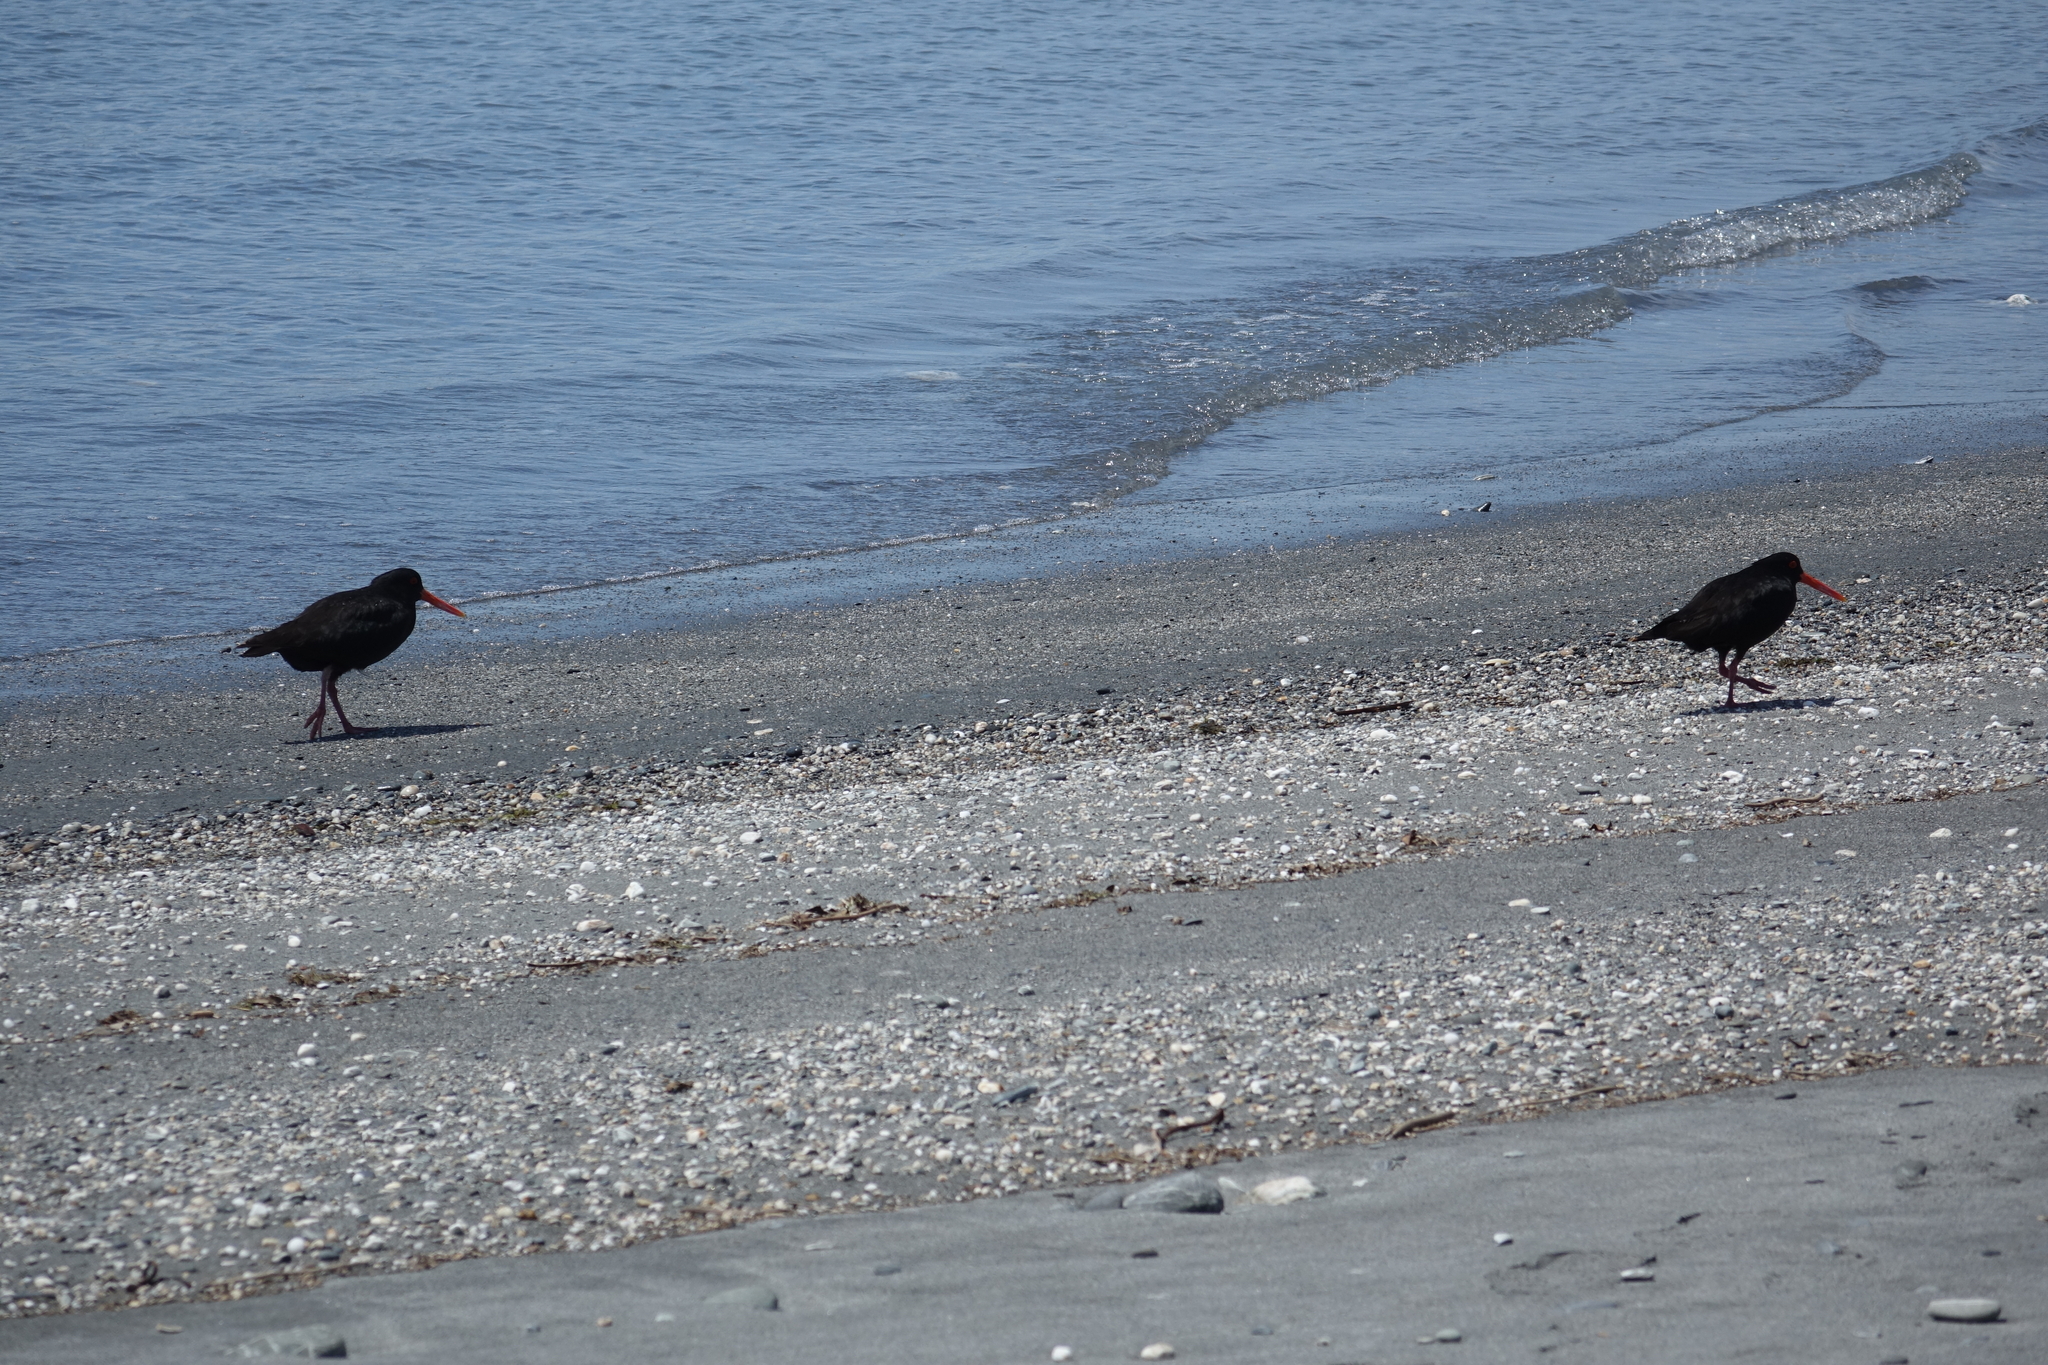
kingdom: Animalia
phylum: Chordata
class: Aves
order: Charadriiformes
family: Haematopodidae
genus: Haematopus
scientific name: Haematopus unicolor
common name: Variable oystercatcher
